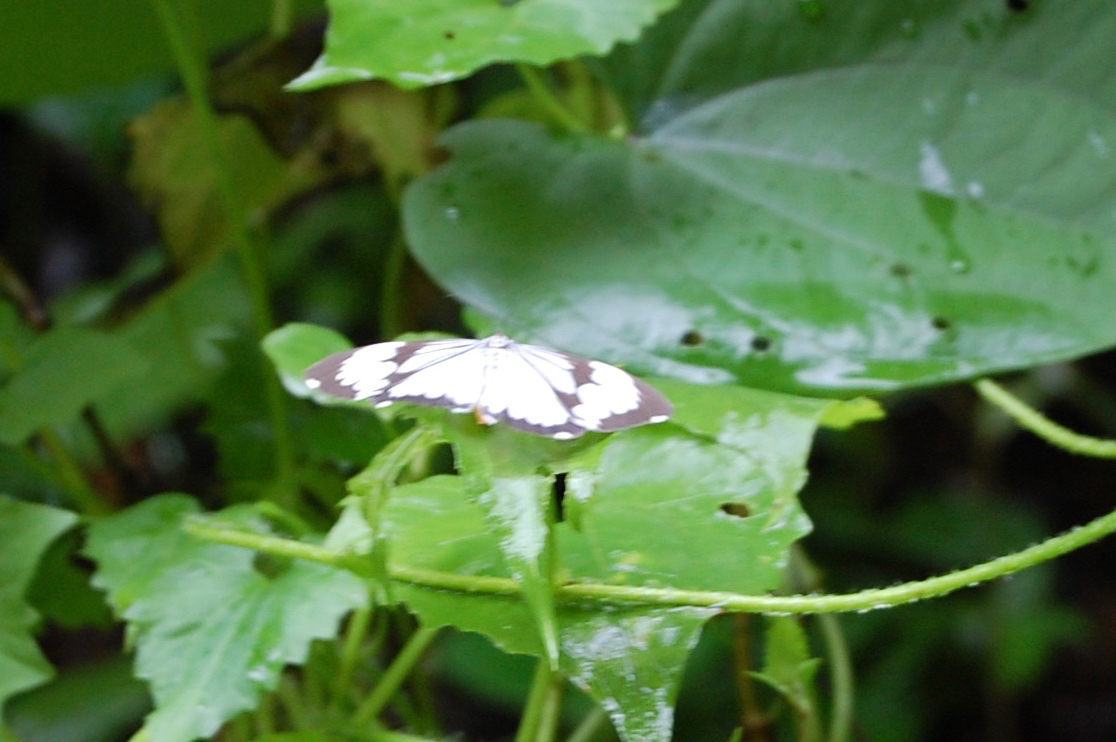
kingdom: Animalia
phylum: Arthropoda
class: Insecta
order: Lepidoptera
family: Erebidae
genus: Nyctemera
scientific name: Nyctemera coleta
